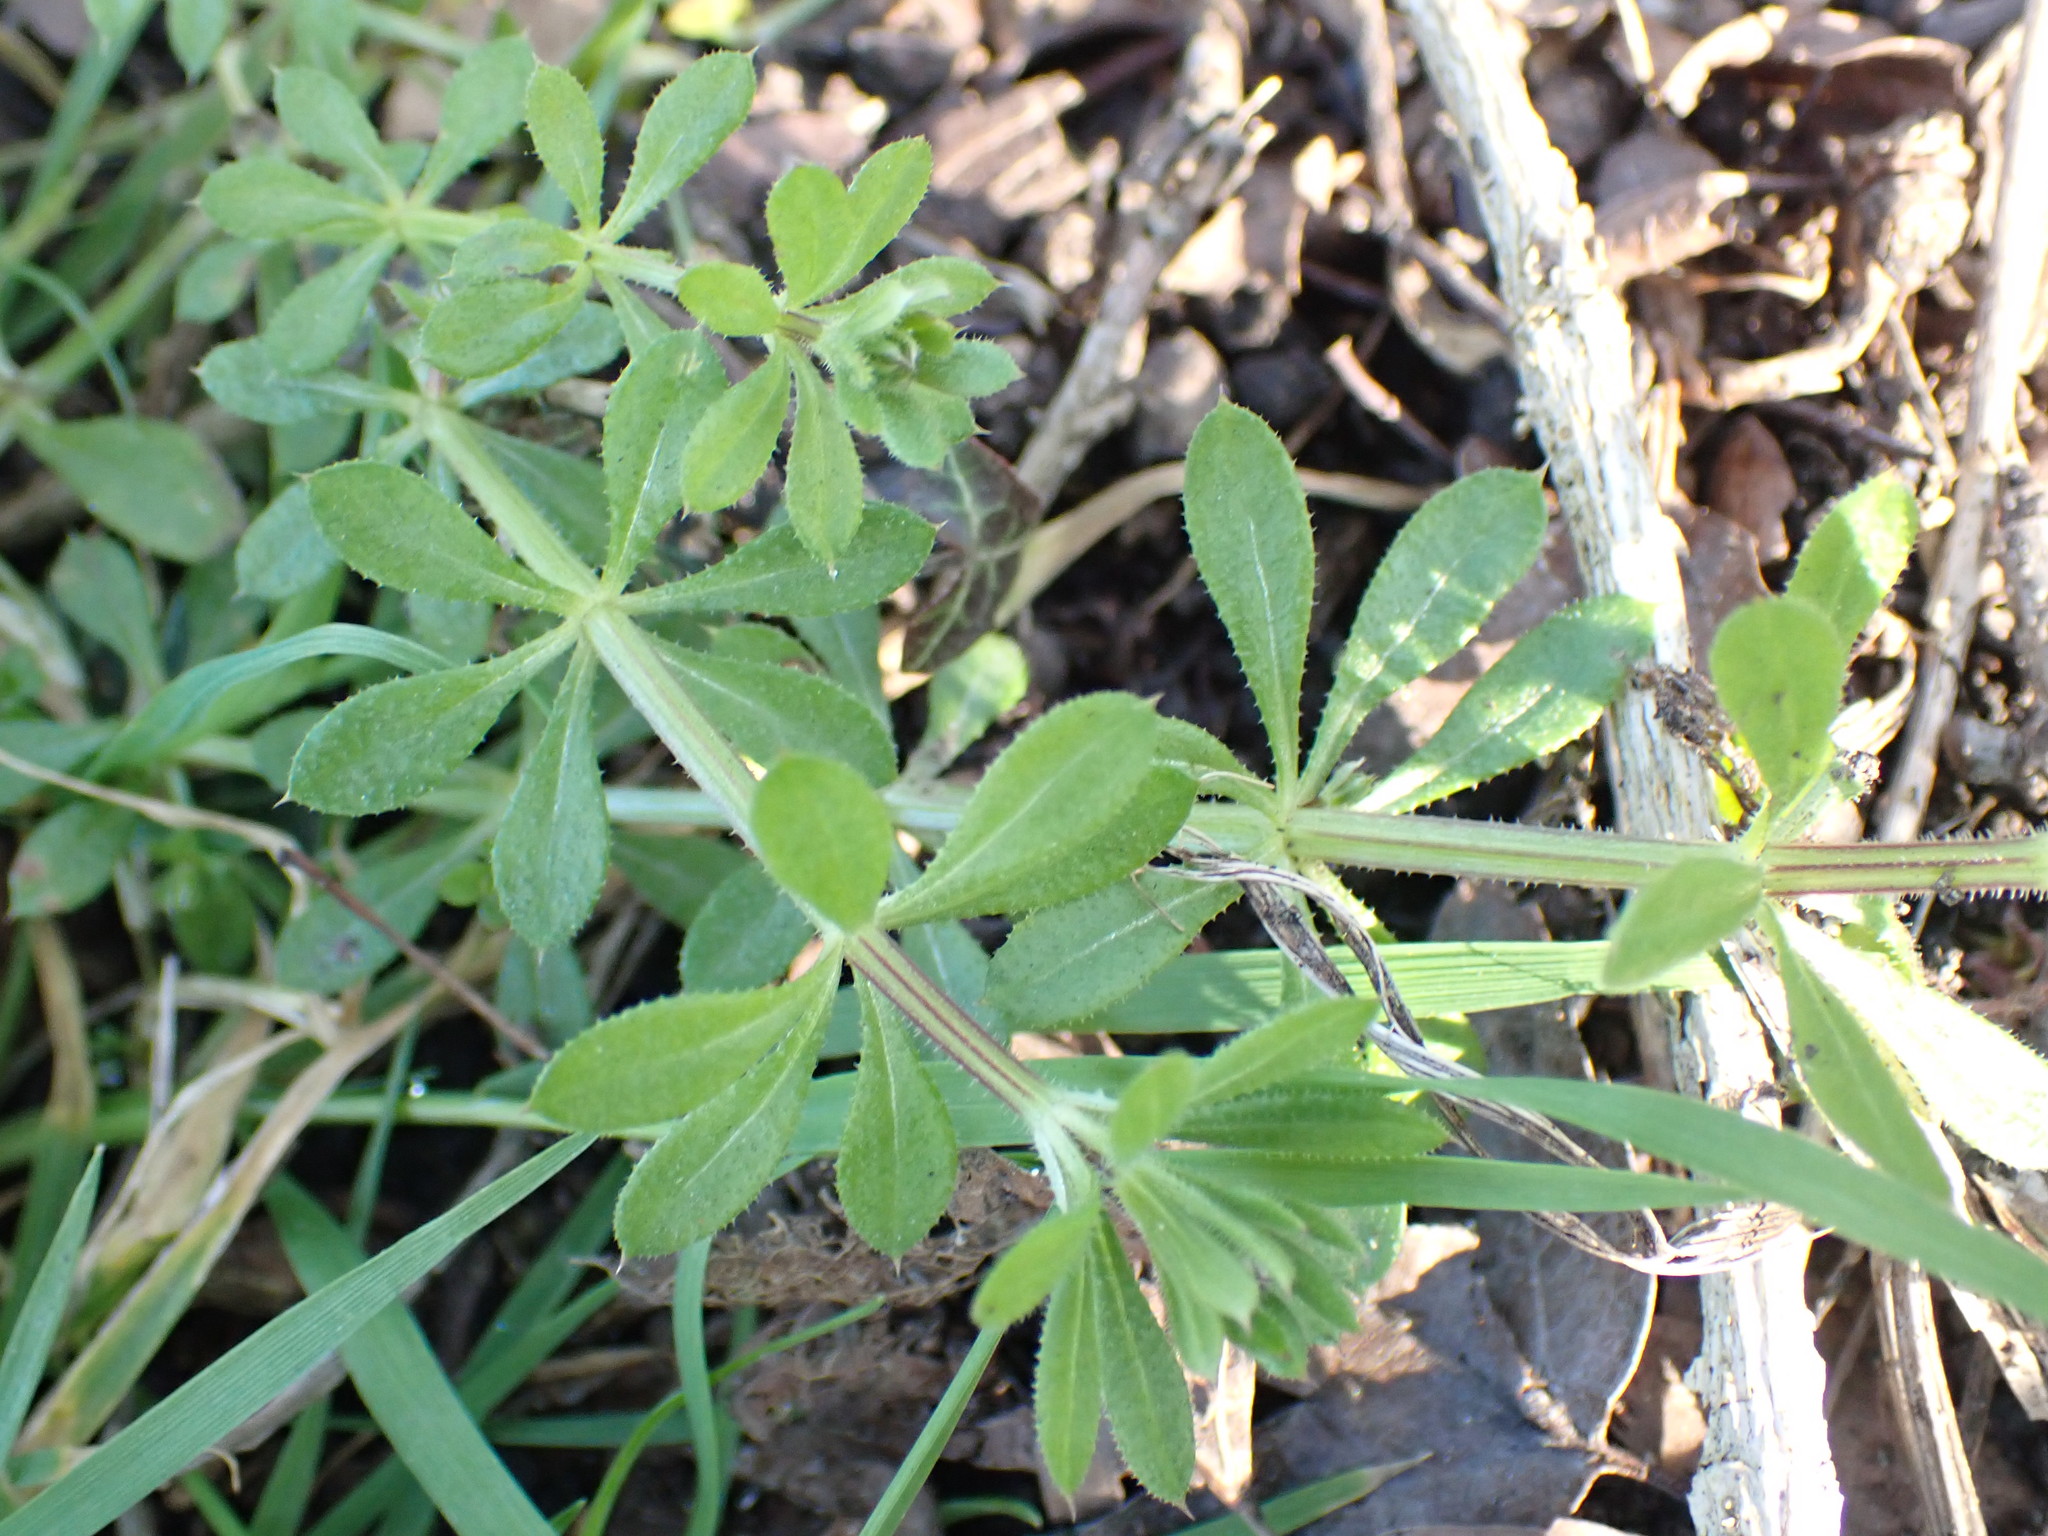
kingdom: Plantae
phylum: Tracheophyta
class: Magnoliopsida
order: Gentianales
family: Rubiaceae
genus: Galium
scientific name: Galium aparine
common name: Cleavers
